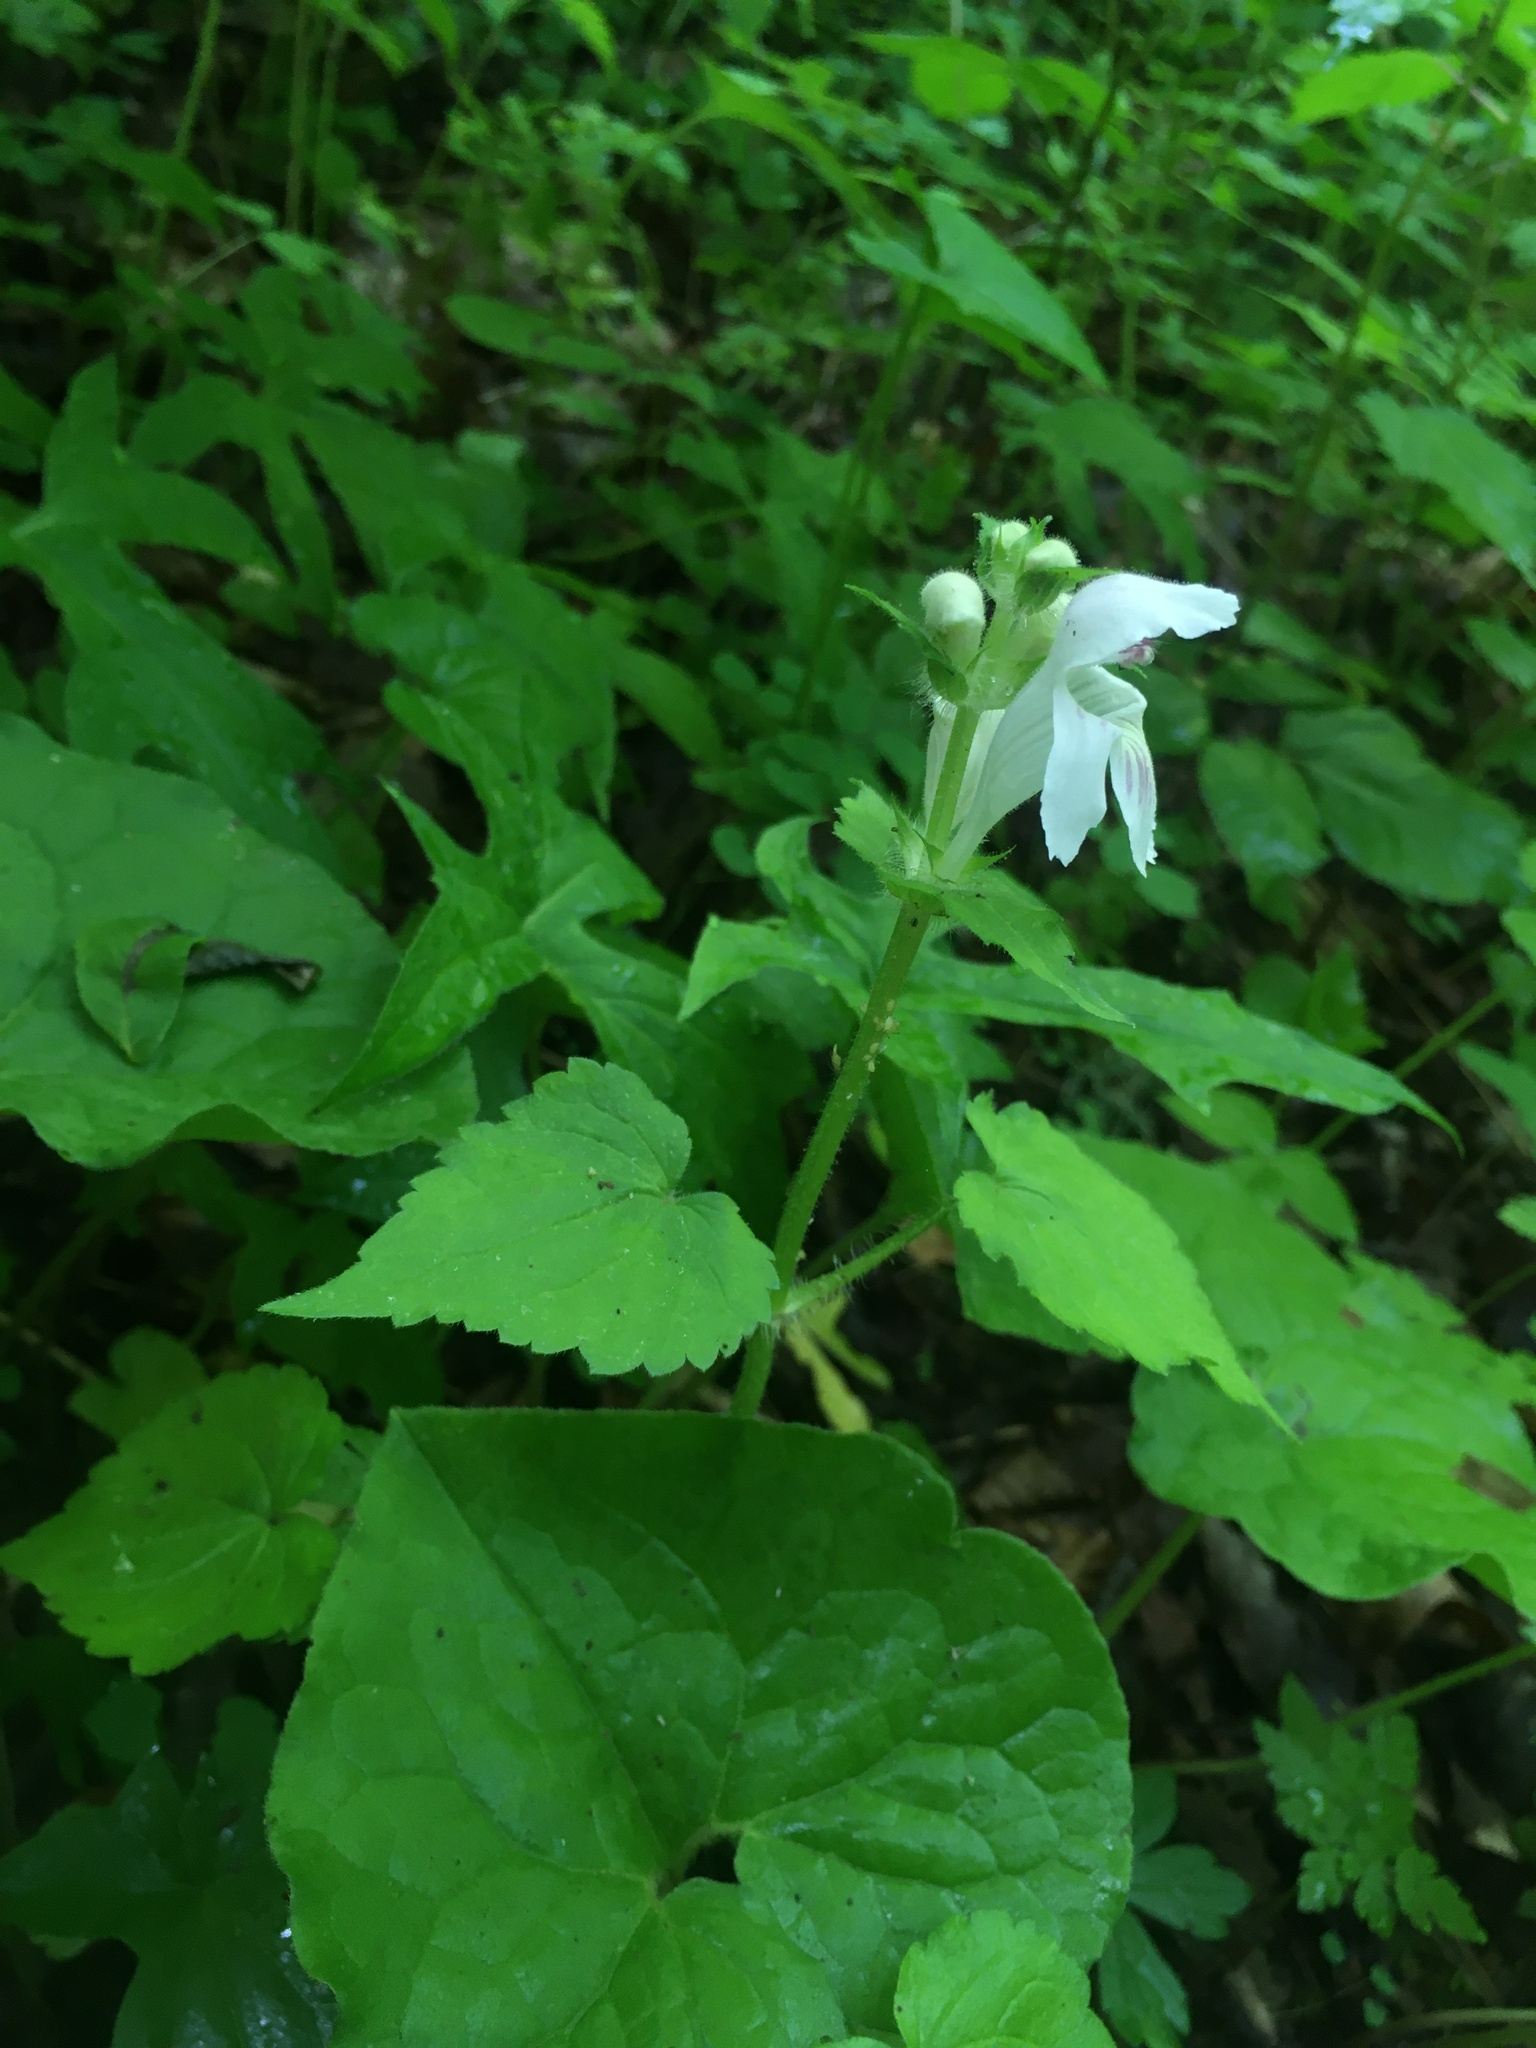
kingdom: Plantae
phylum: Tracheophyta
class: Magnoliopsida
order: Lamiales
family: Lamiaceae
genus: Synandra
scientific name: Synandra hispidula
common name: Synandra
